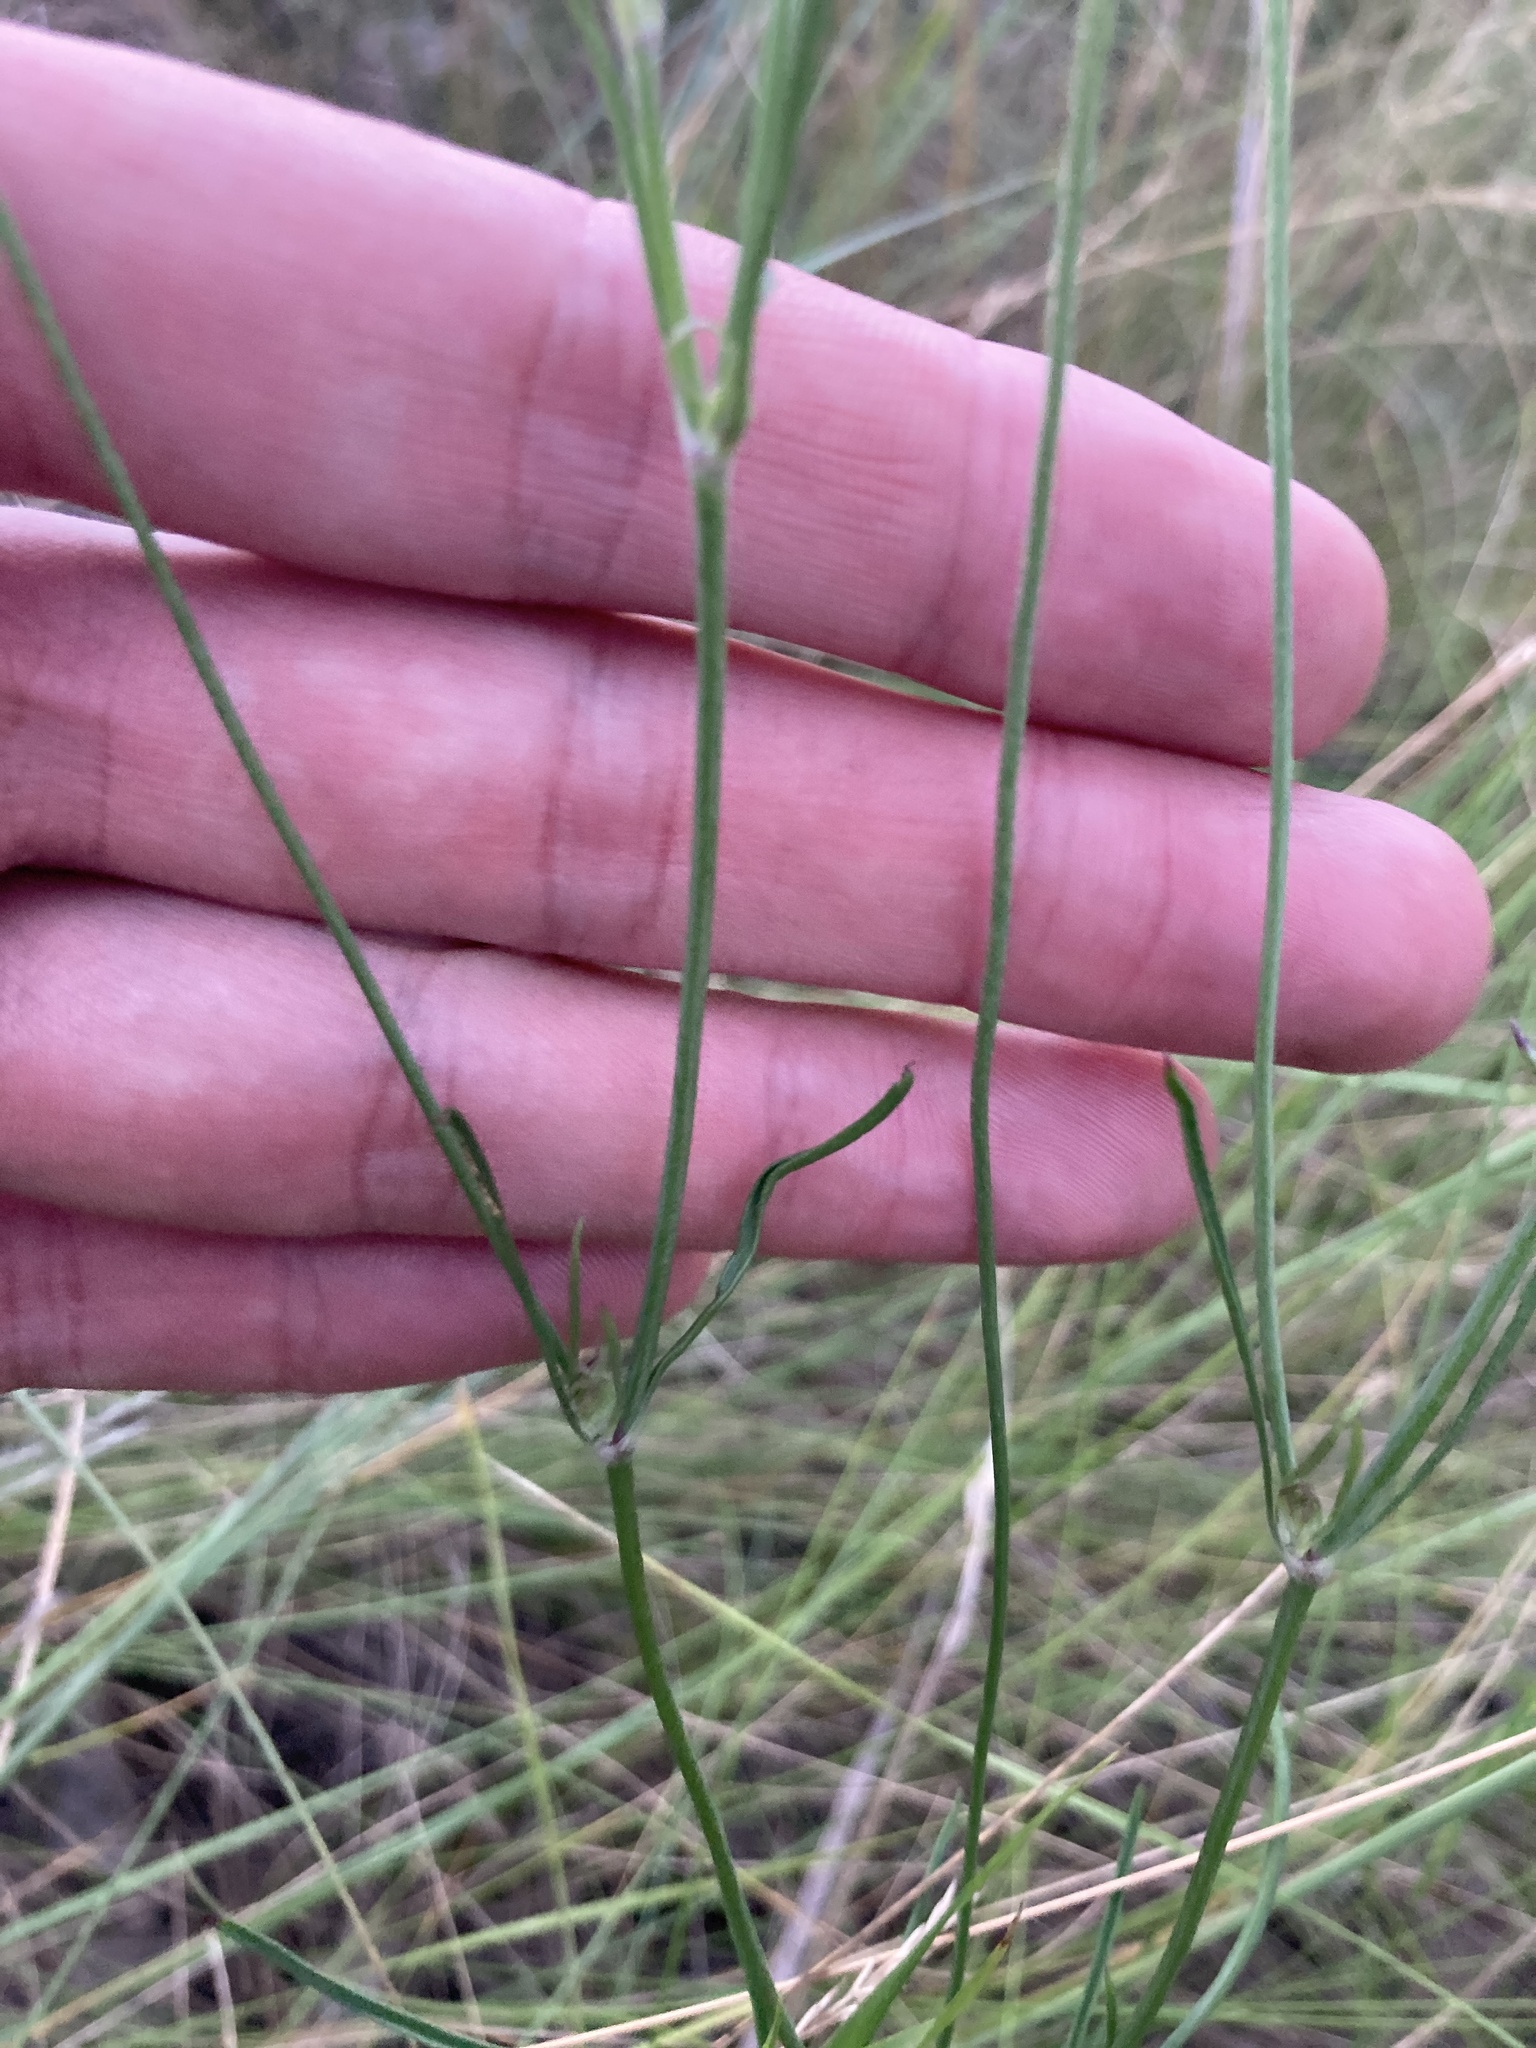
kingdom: Plantae
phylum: Tracheophyta
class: Magnoliopsida
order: Dipsacales
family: Caprifoliaceae
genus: Scabiosa
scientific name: Scabiosa ochroleuca
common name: Cream pincushions
